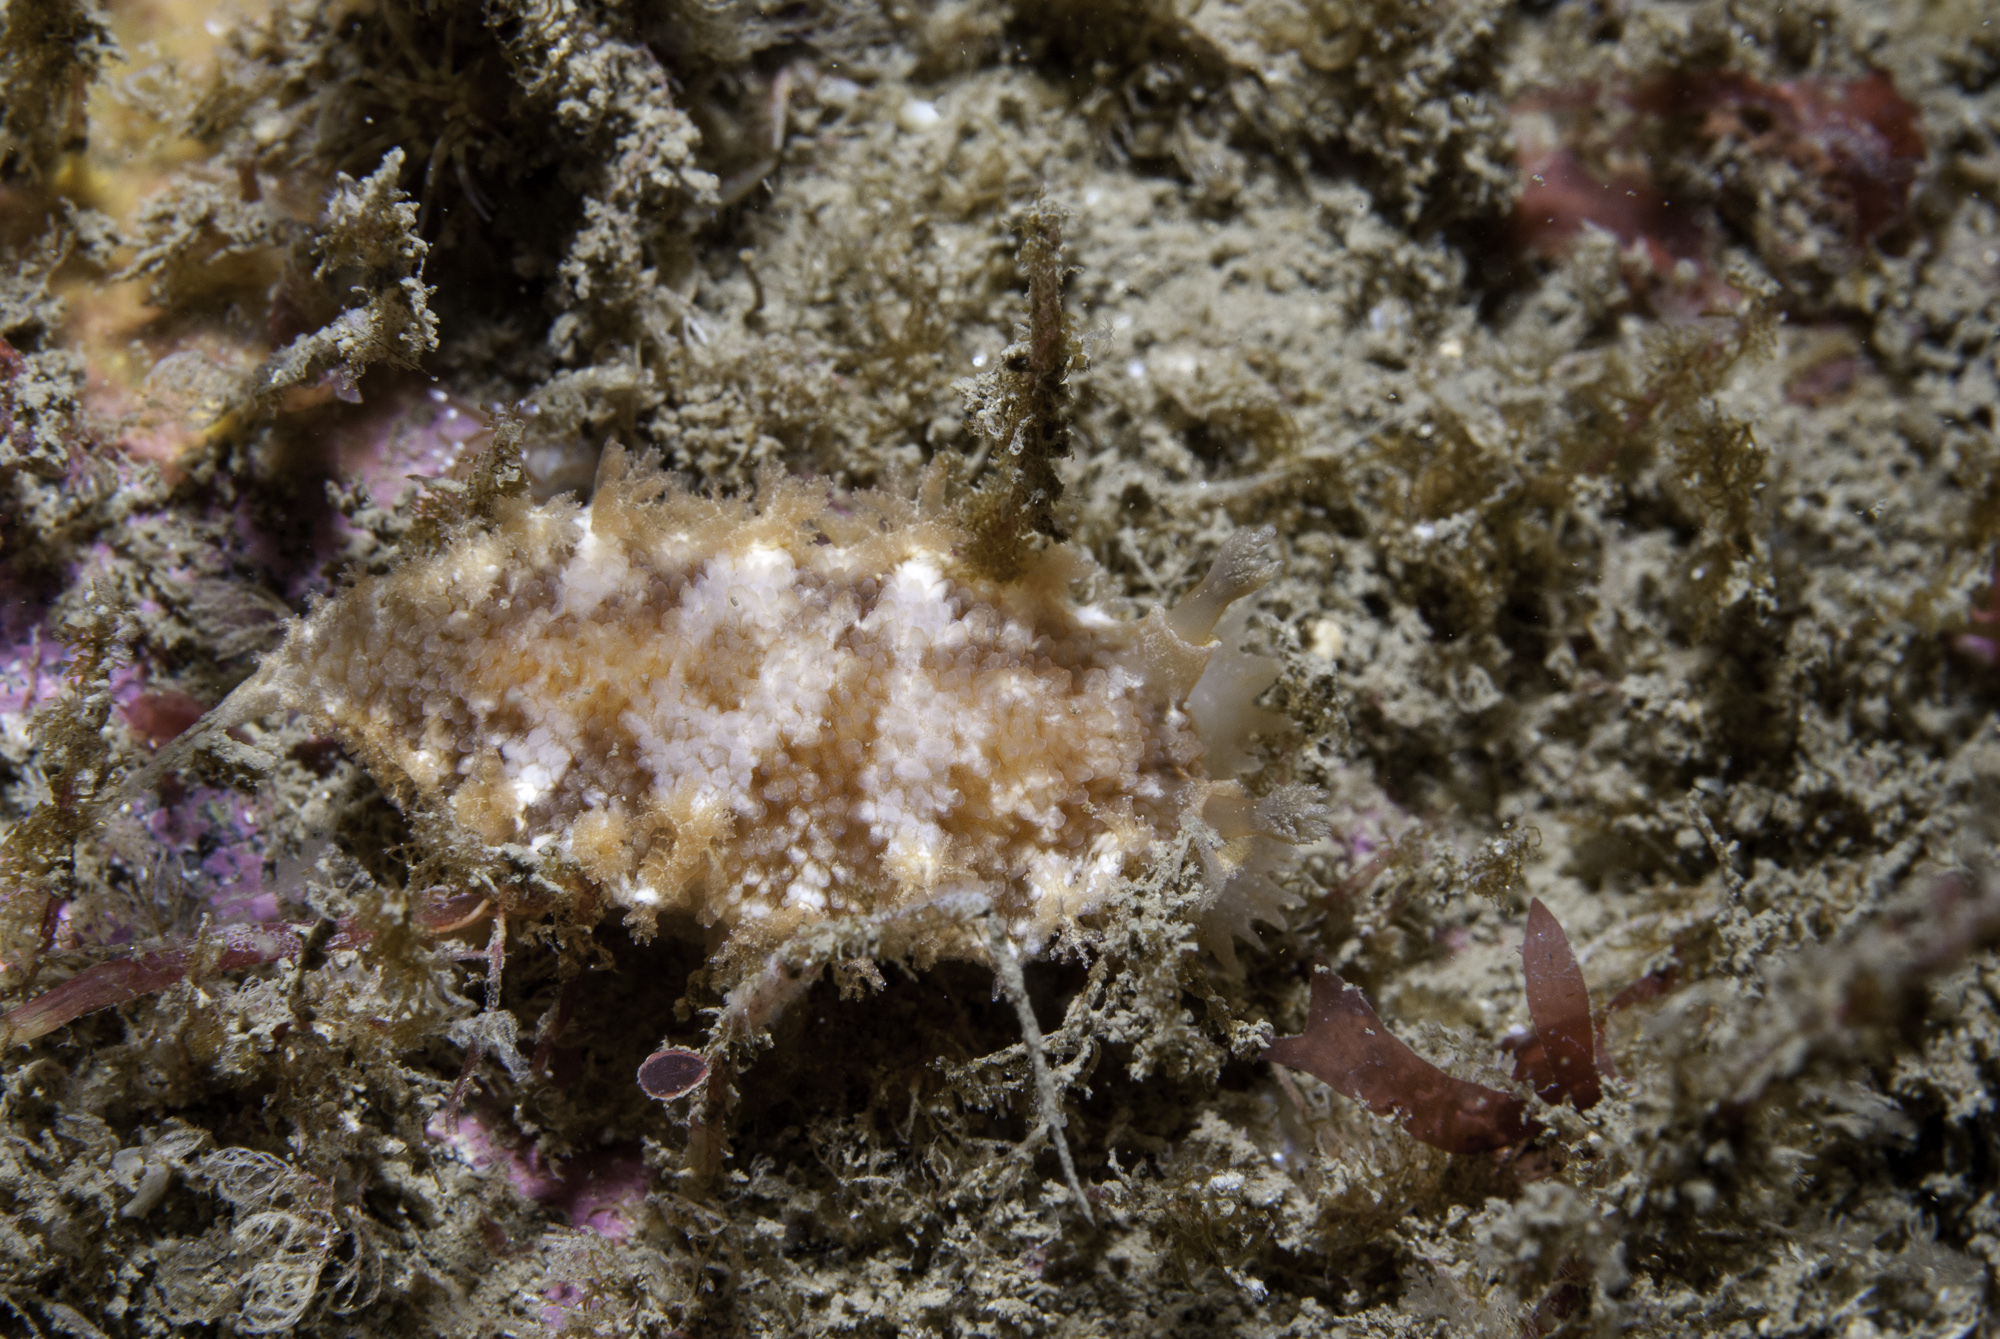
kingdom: Animalia
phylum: Mollusca
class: Gastropoda
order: Nudibranchia
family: Tritoniidae
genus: Tritonia
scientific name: Tritonia hombergii
